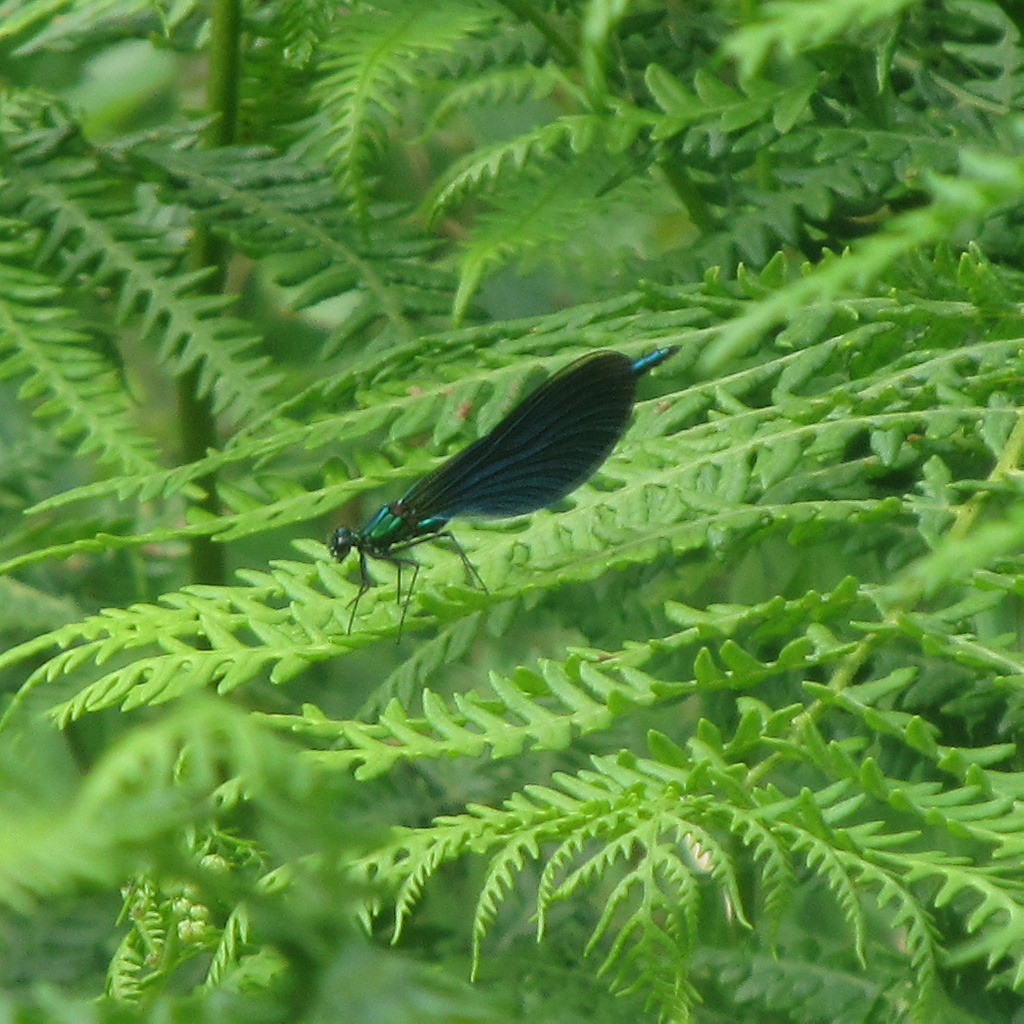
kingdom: Animalia
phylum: Arthropoda
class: Insecta
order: Odonata
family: Calopterygidae
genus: Calopteryx
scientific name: Calopteryx virgo
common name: Beautiful demoiselle
